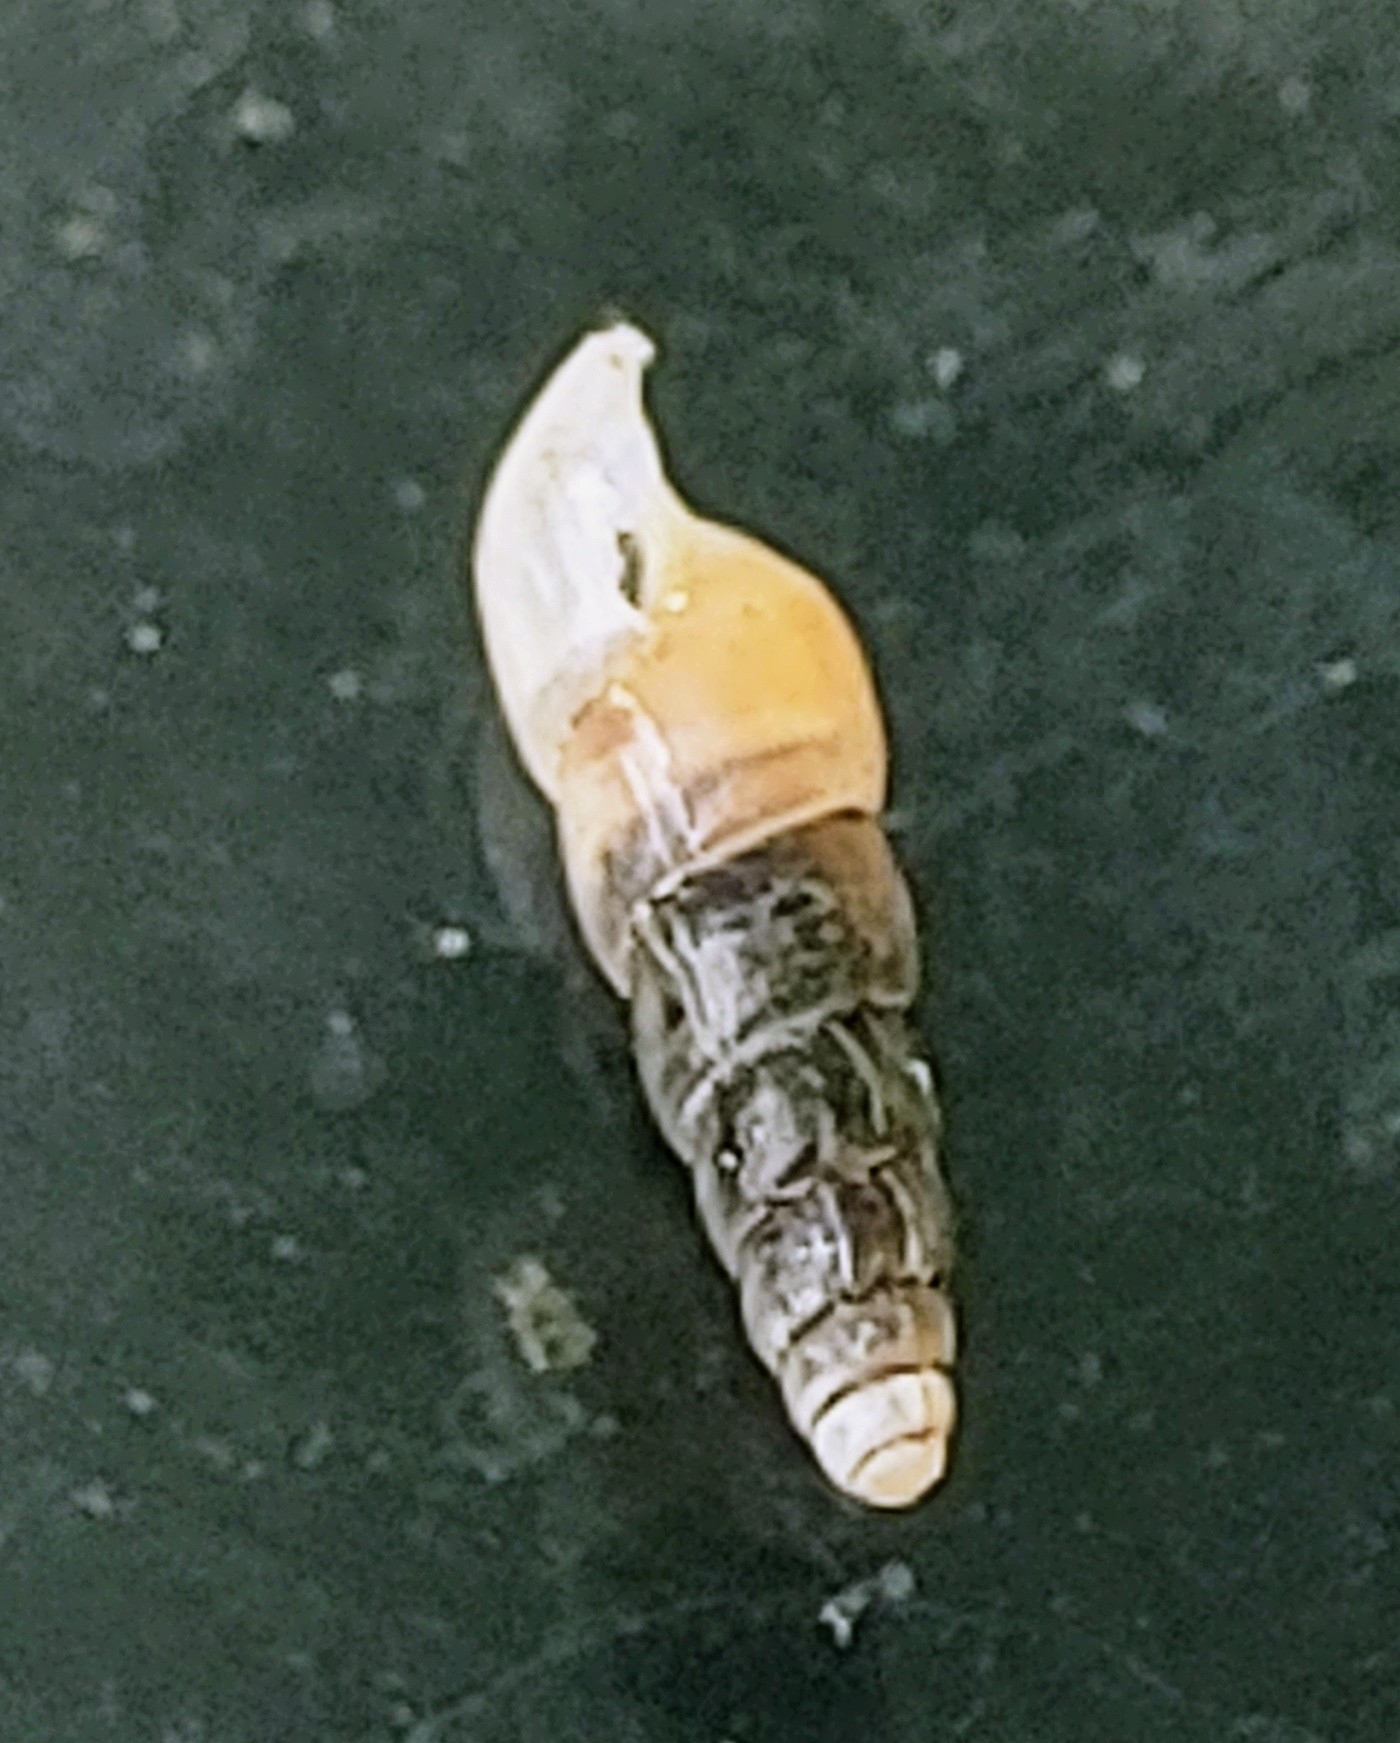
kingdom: Animalia
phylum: Mollusca
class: Gastropoda
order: Stylommatophora
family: Achatinidae
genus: Subulina
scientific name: Subulina octona
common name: Miniature awlsnail
